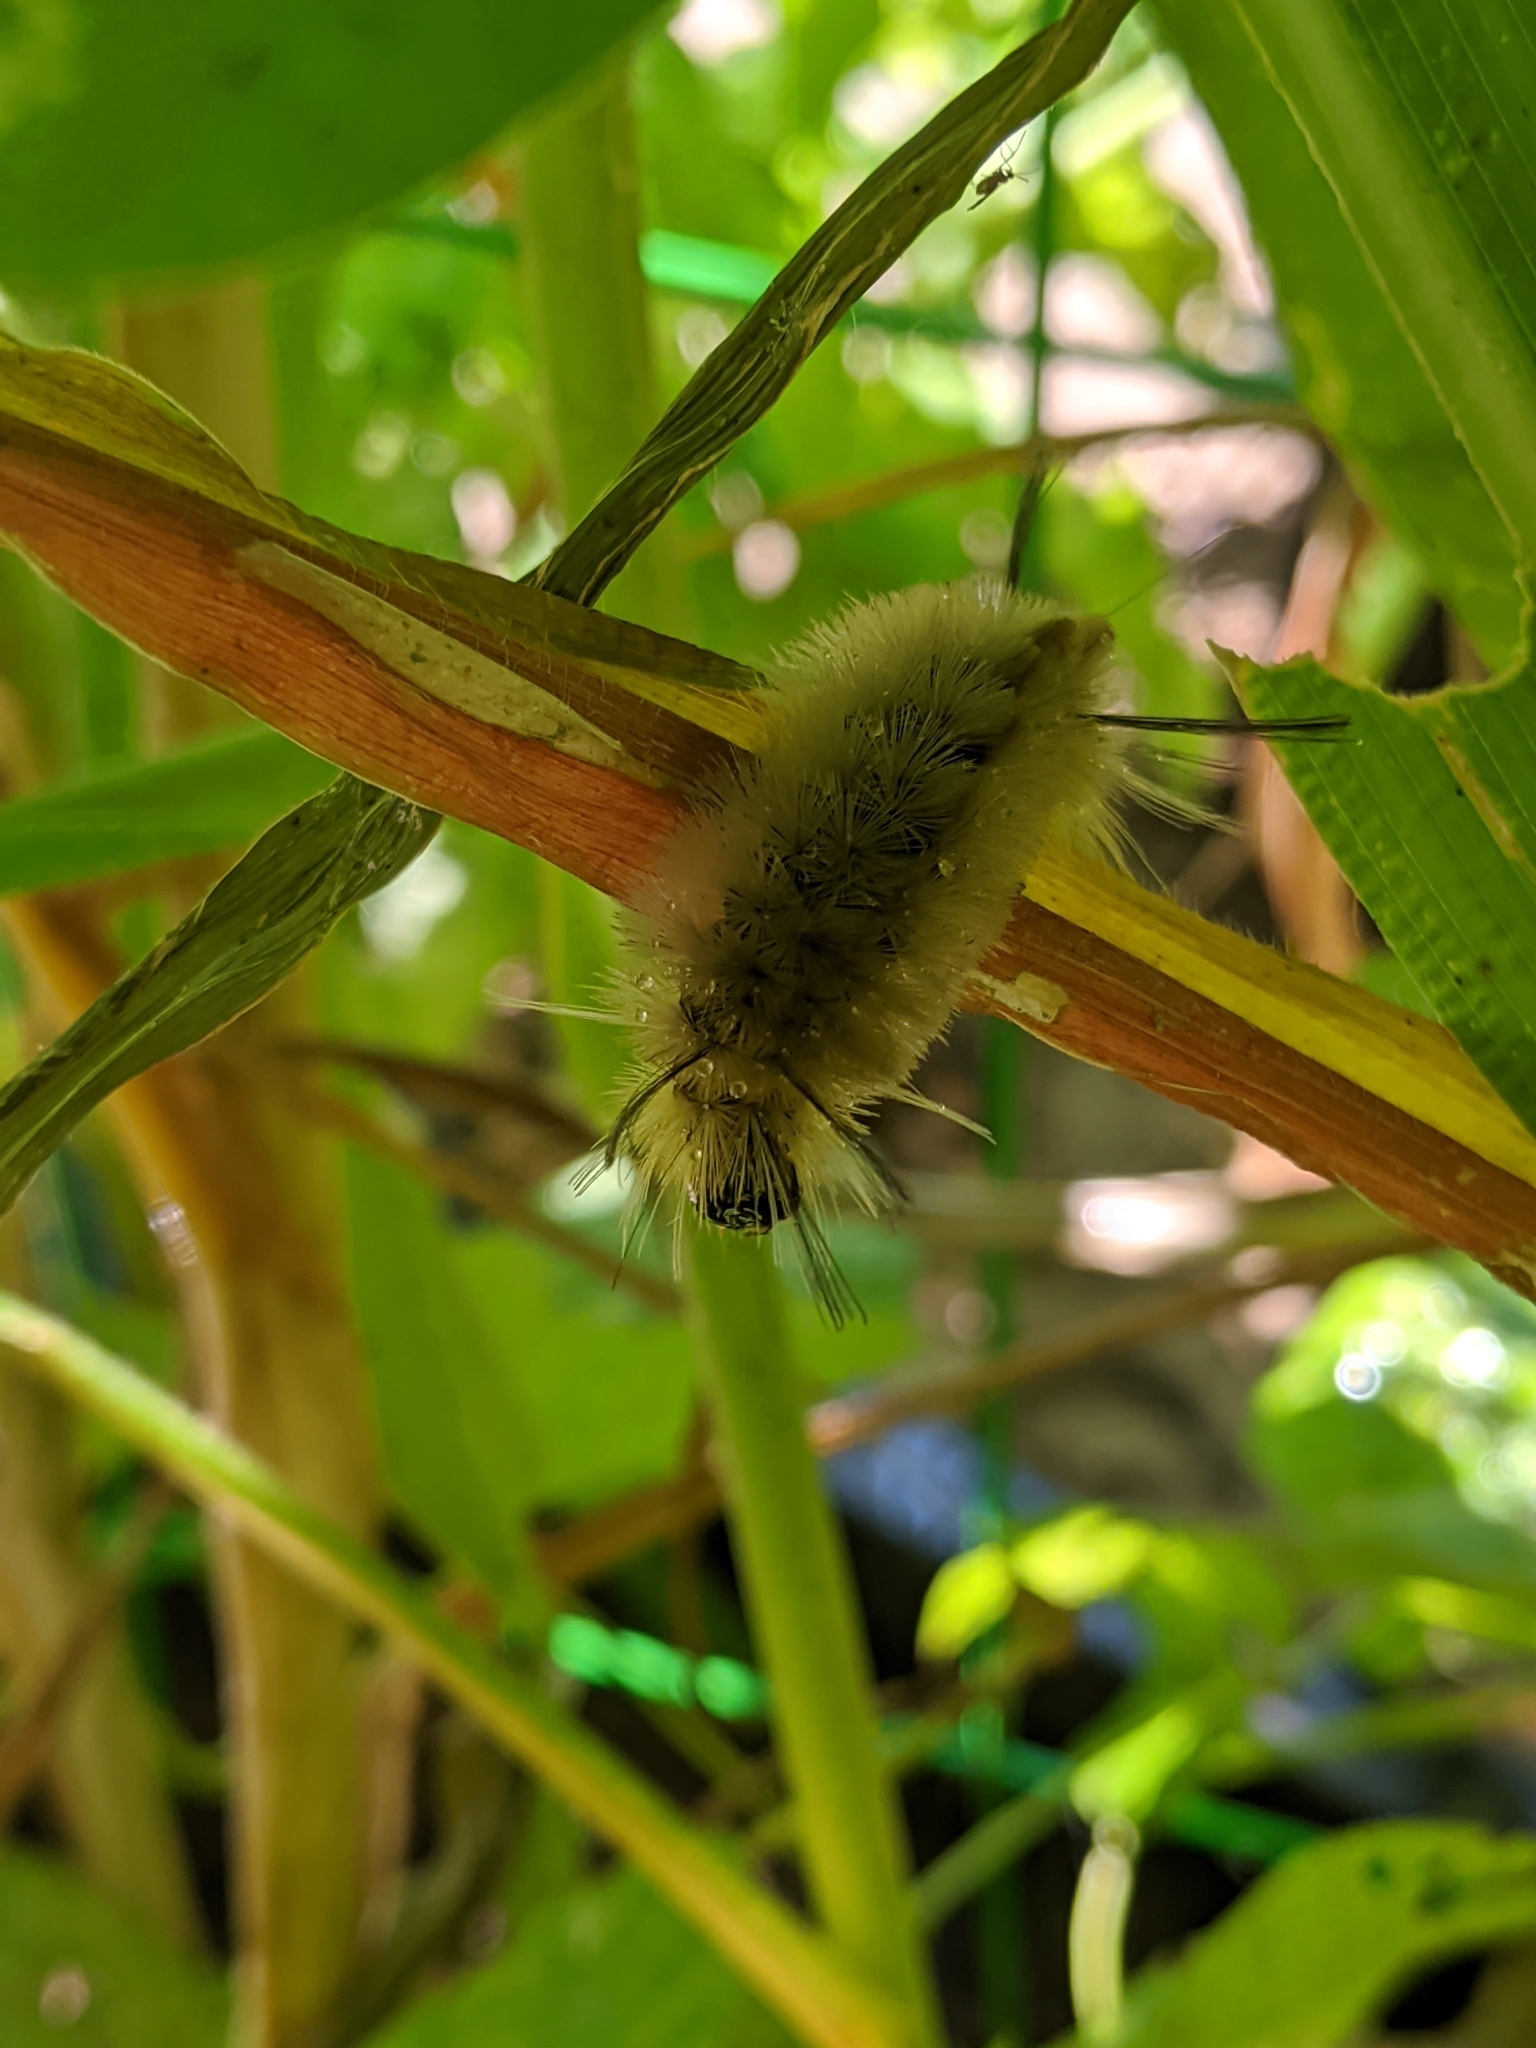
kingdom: Animalia
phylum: Arthropoda
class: Insecta
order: Lepidoptera
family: Erebidae
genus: Halysidota
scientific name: Halysidota tessellaris
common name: Banded tussock moth
